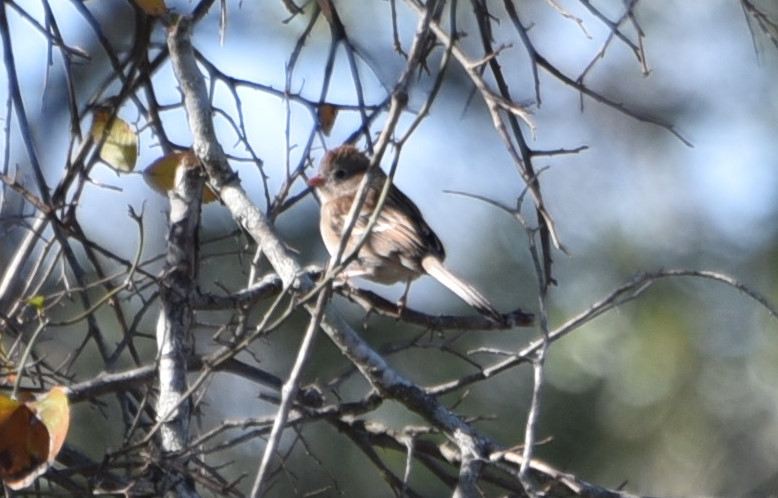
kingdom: Animalia
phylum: Chordata
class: Aves
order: Passeriformes
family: Passerellidae
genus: Spizella
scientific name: Spizella pusilla
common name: Field sparrow
